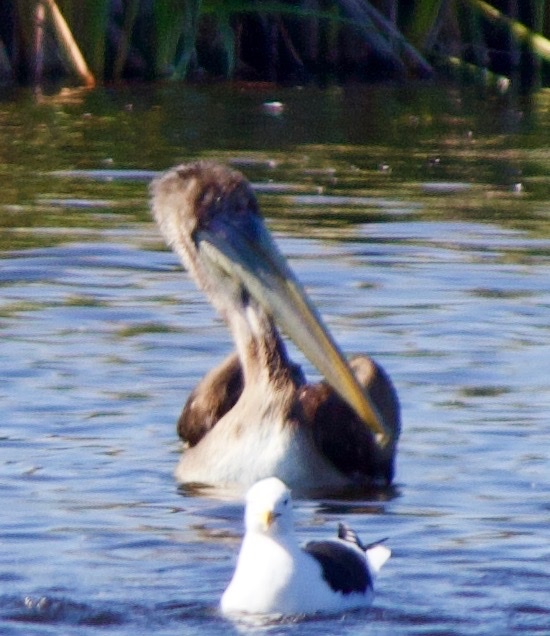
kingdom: Animalia
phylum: Chordata
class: Aves
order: Pelecaniformes
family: Pelecanidae
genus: Pelecanus
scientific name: Pelecanus thagus
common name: Peruvian pelican
